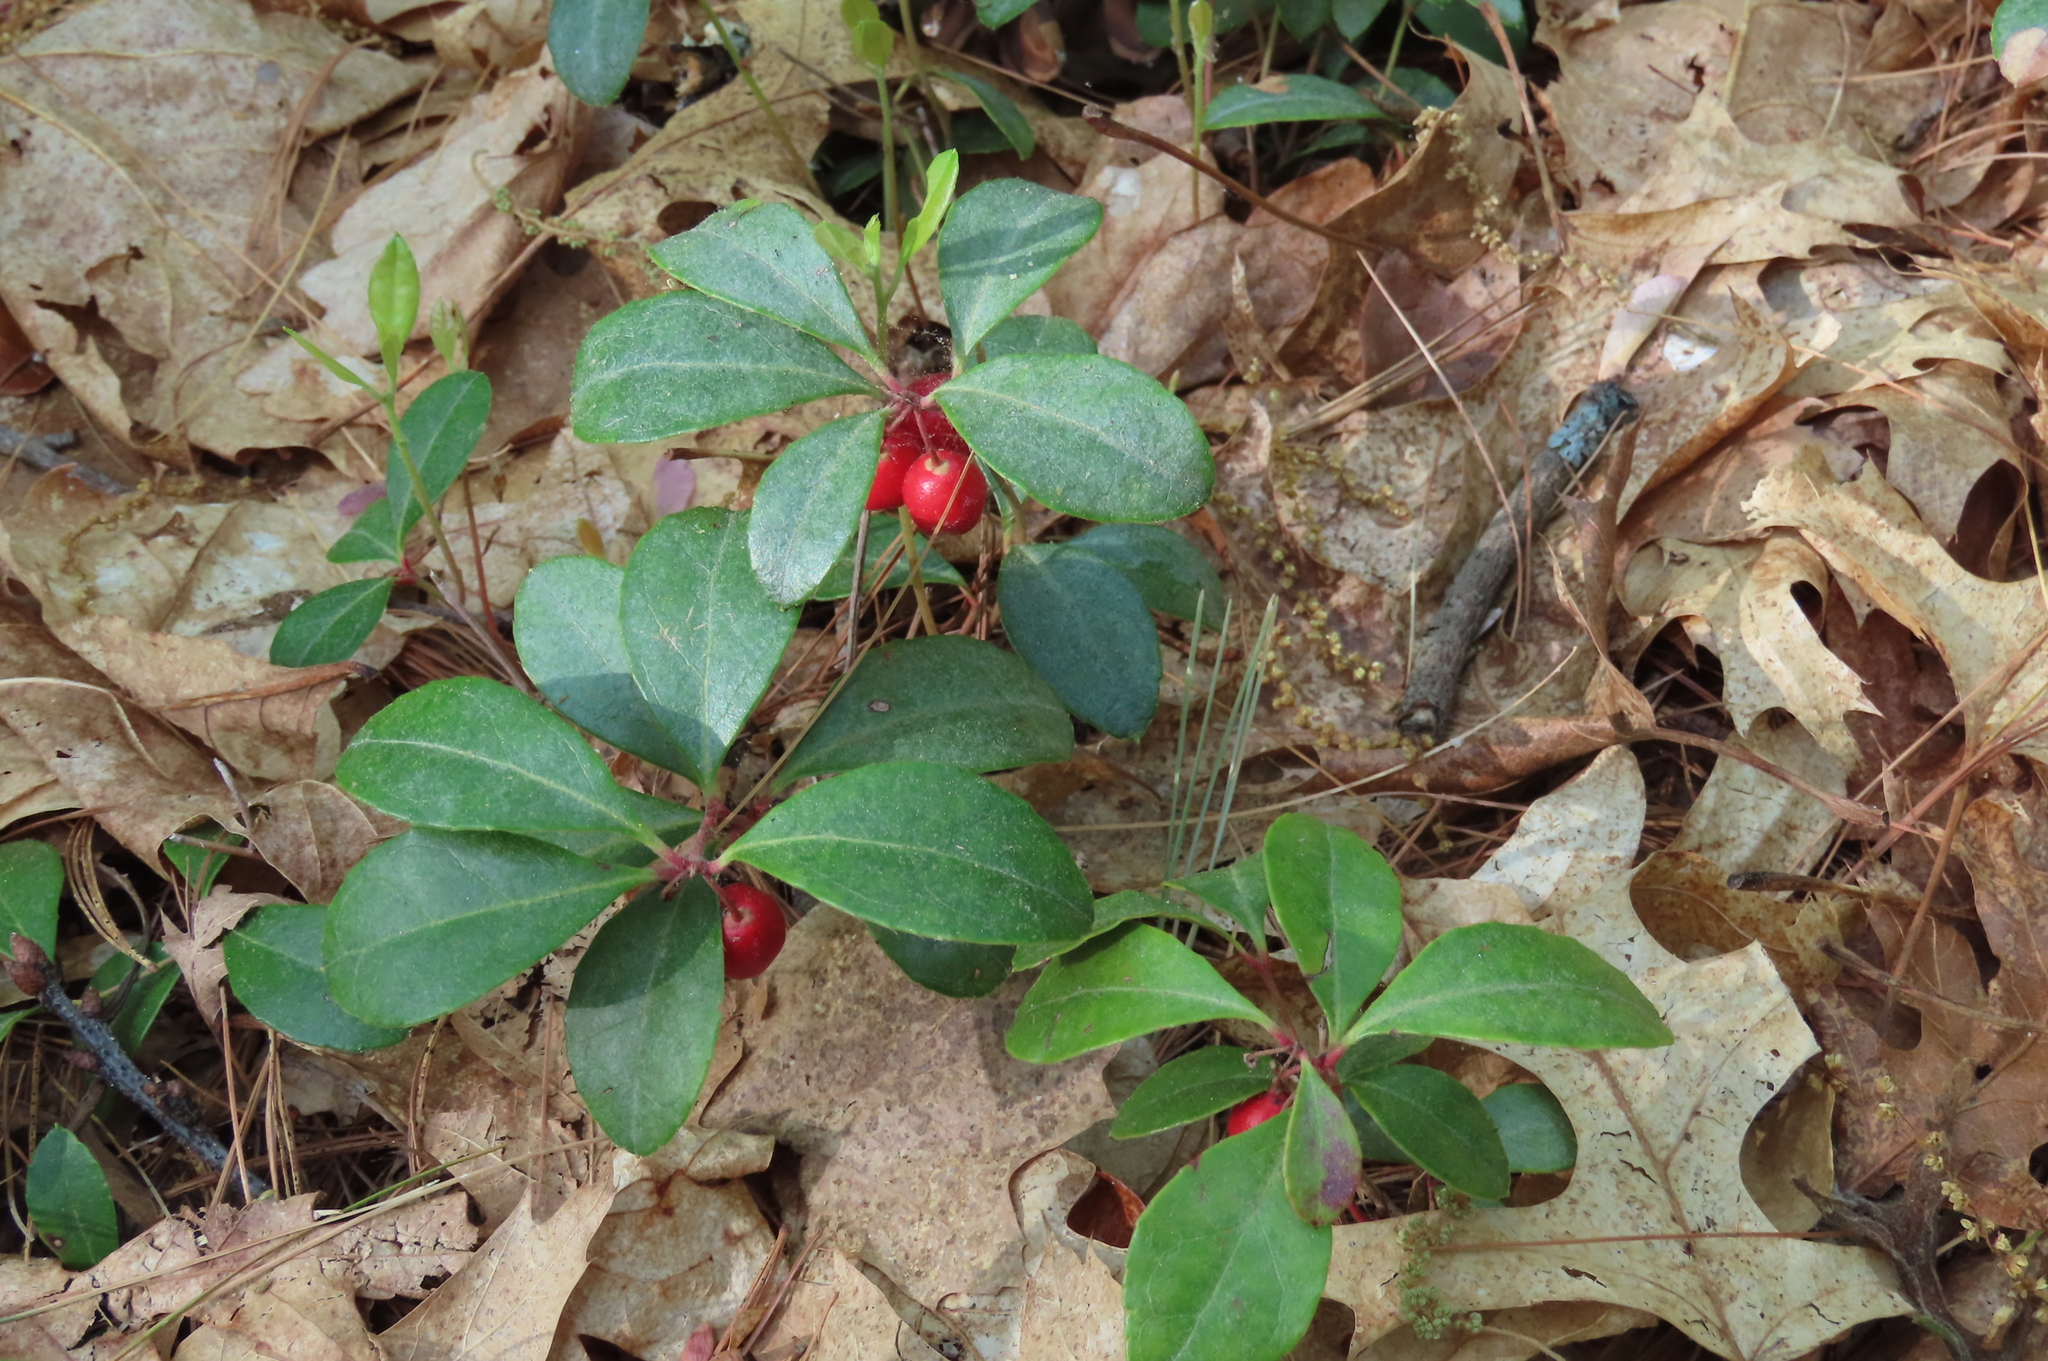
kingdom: Plantae
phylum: Tracheophyta
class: Magnoliopsida
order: Ericales
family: Ericaceae
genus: Gaultheria
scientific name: Gaultheria procumbens
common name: Checkerberry
